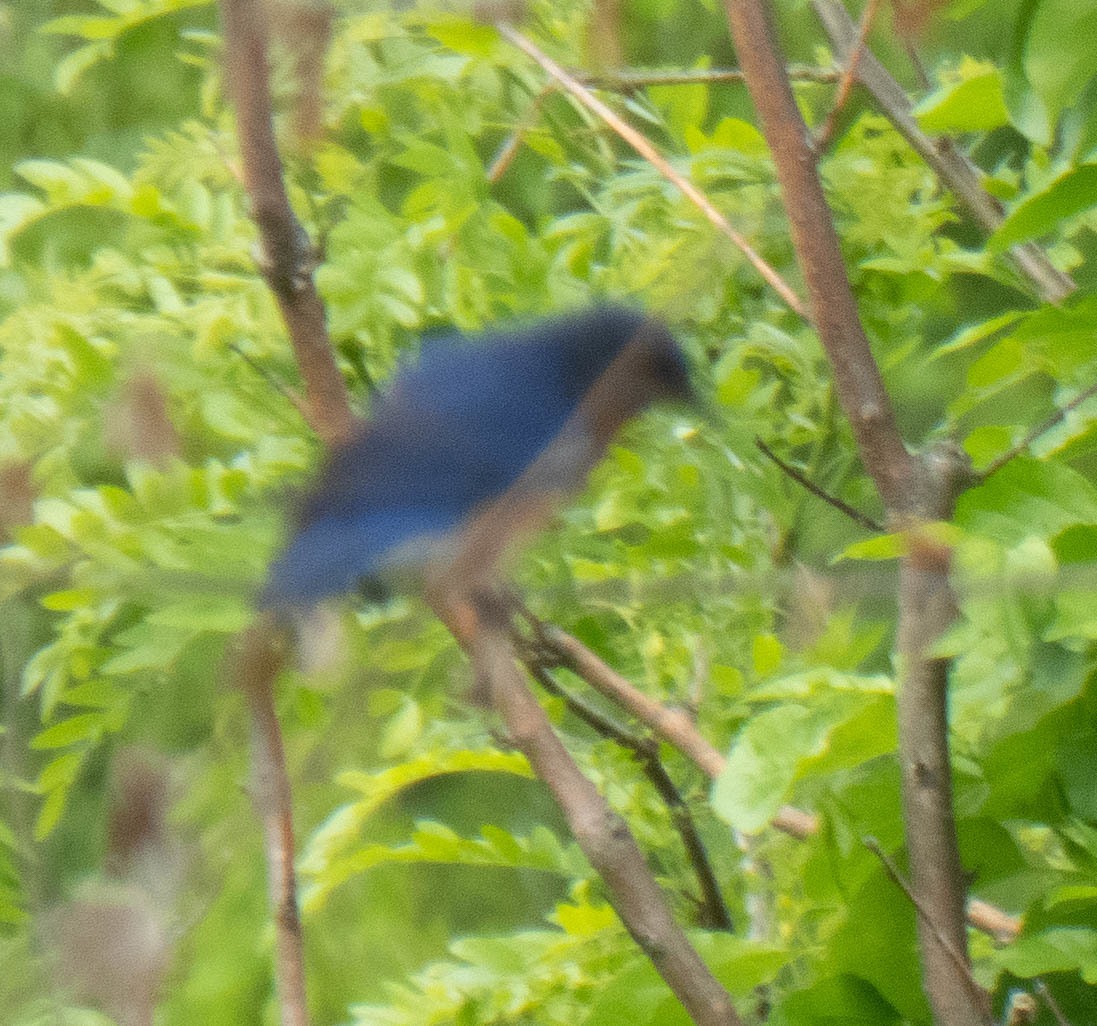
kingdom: Animalia
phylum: Chordata
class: Aves
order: Passeriformes
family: Turdidae
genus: Sialia
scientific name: Sialia sialis
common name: Eastern bluebird
